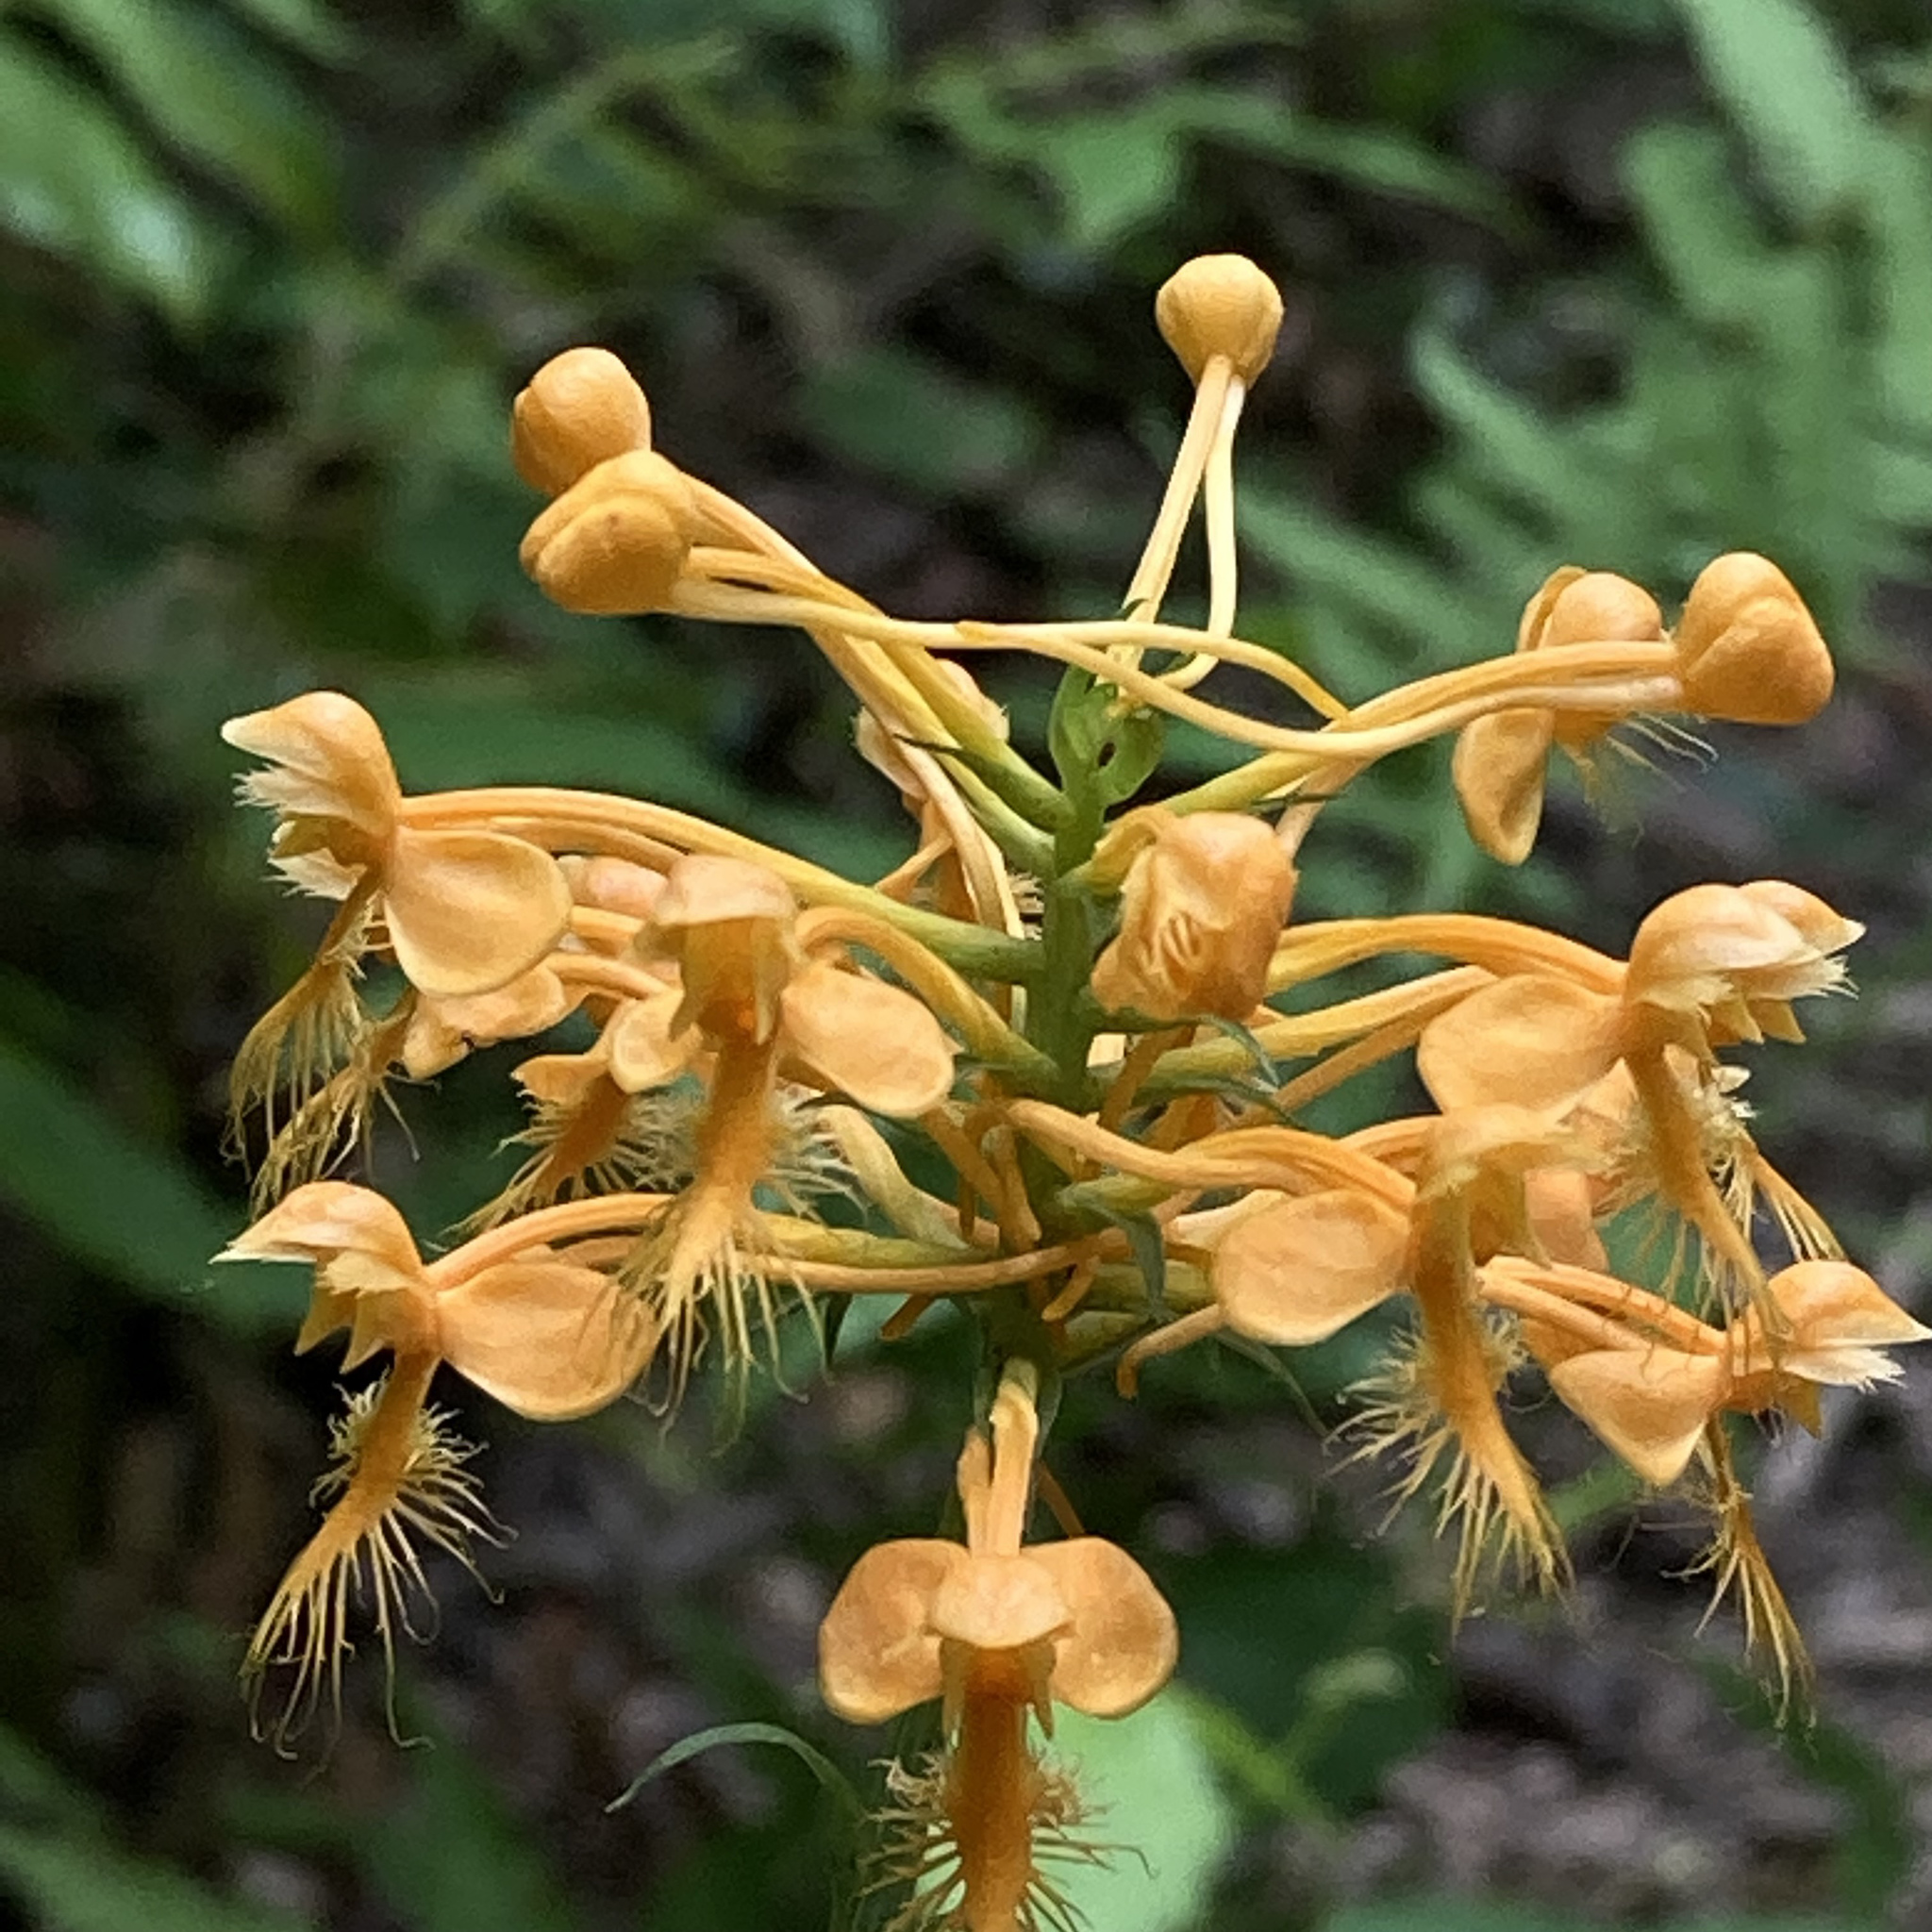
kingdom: Plantae
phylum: Tracheophyta
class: Liliopsida
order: Asparagales
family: Orchidaceae
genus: Platanthera
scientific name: Platanthera ciliaris
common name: Yellow fringed orchid
